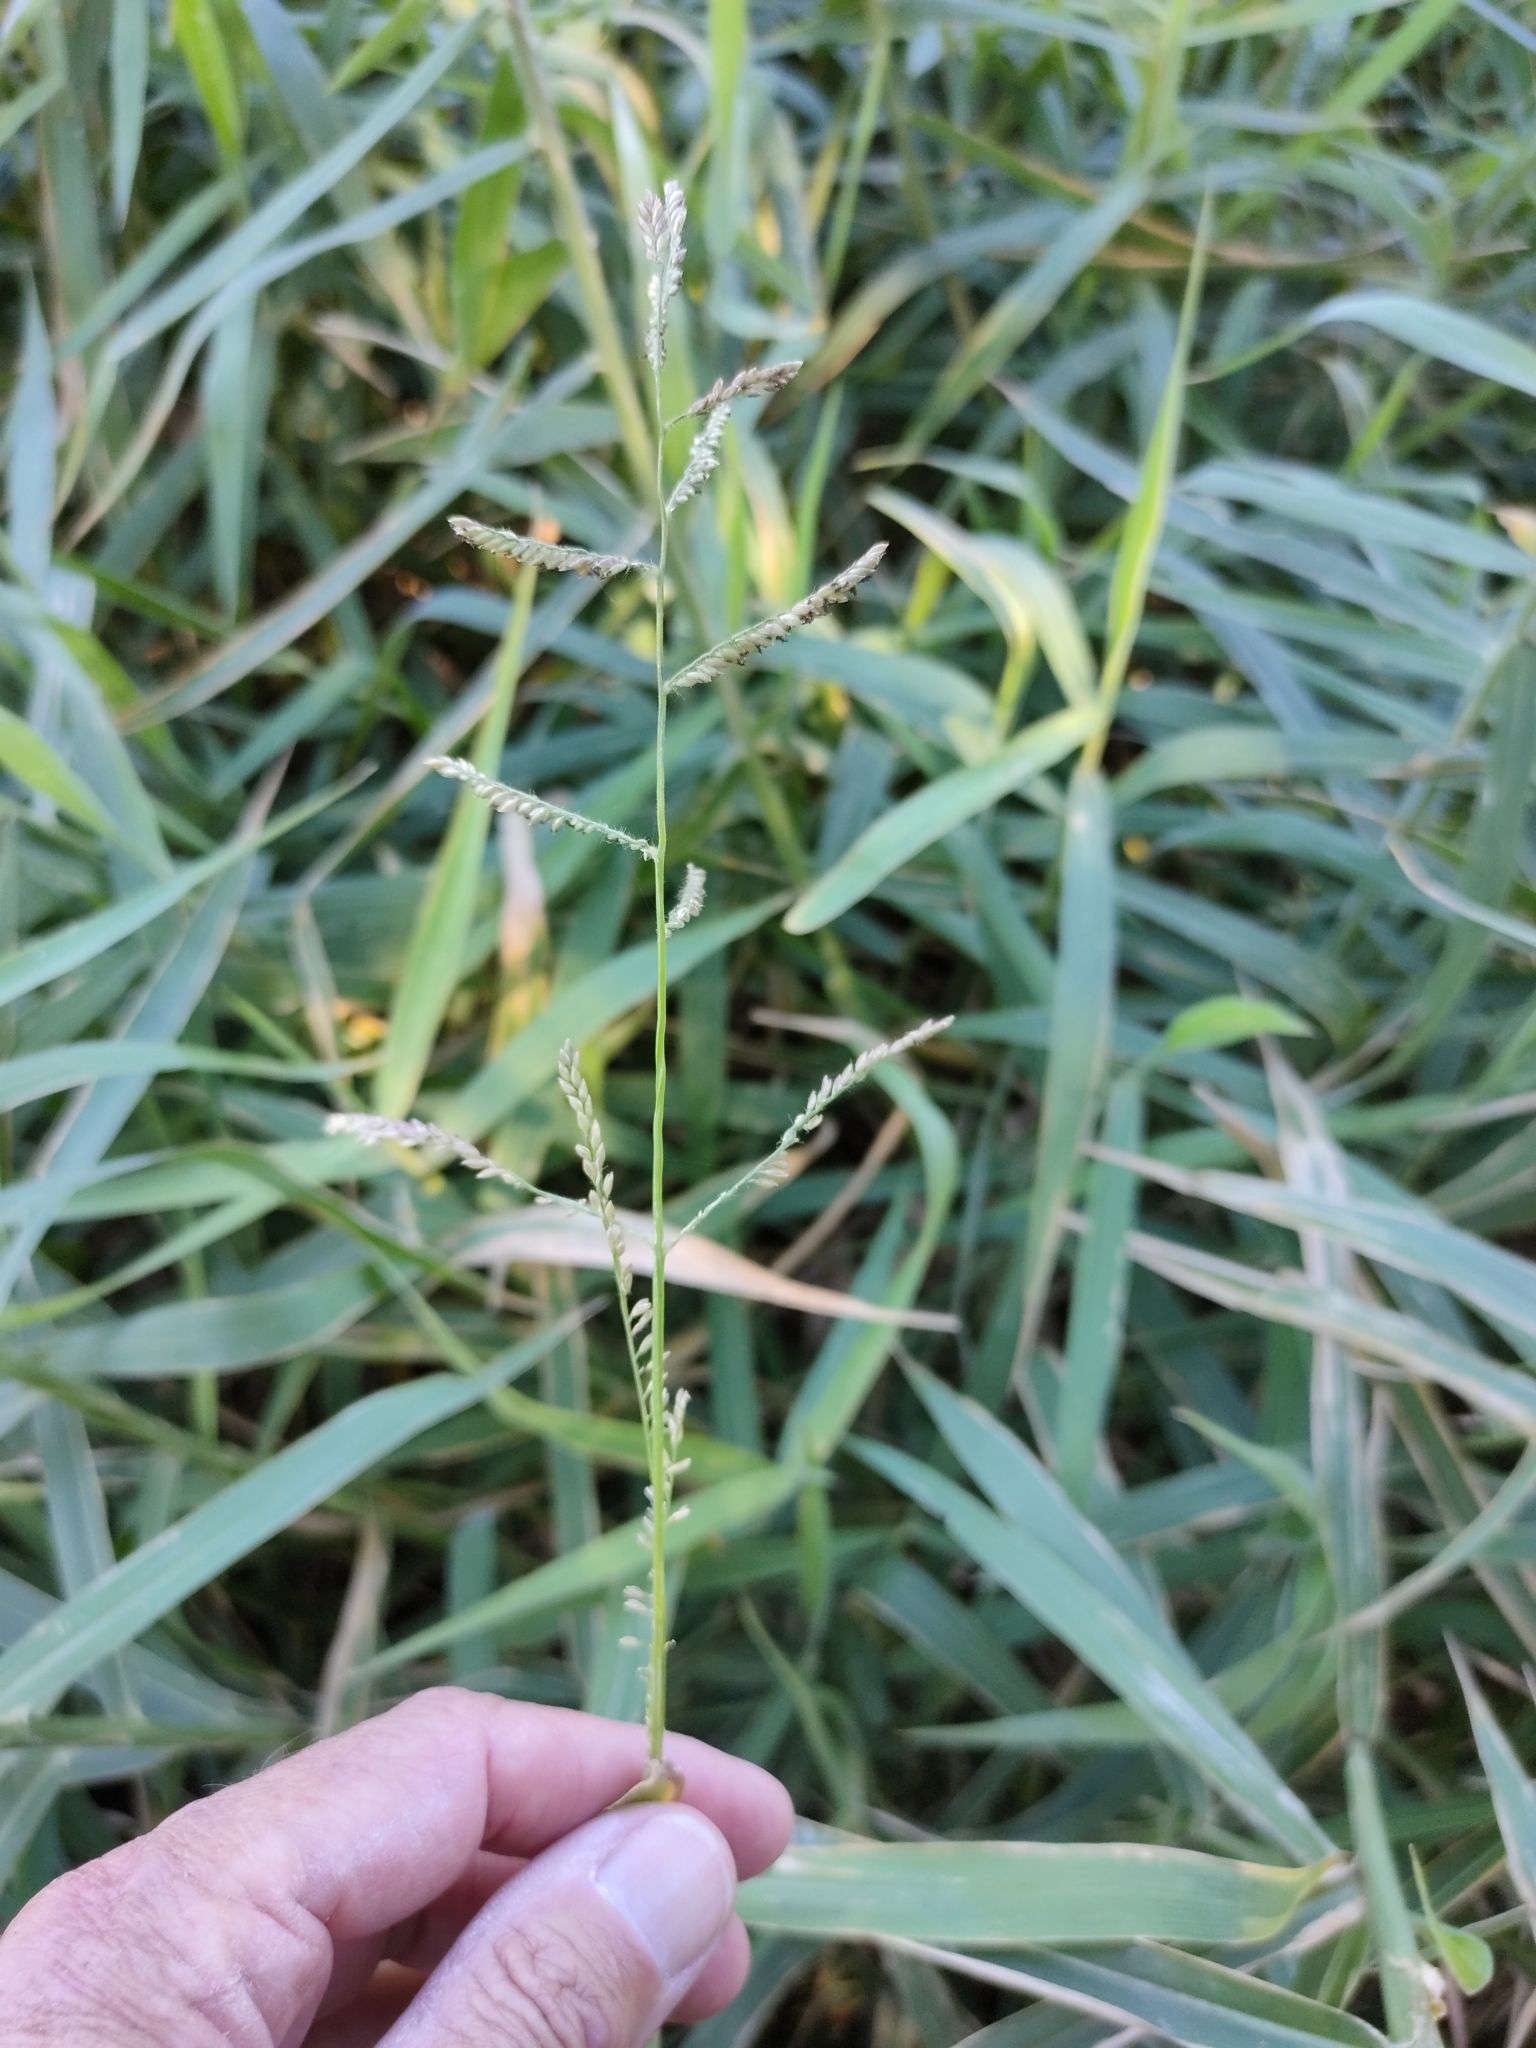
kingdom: Plantae
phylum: Tracheophyta
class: Liliopsida
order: Poales
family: Poaceae
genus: Urochloa
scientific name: Urochloa mutica
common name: Para grass
